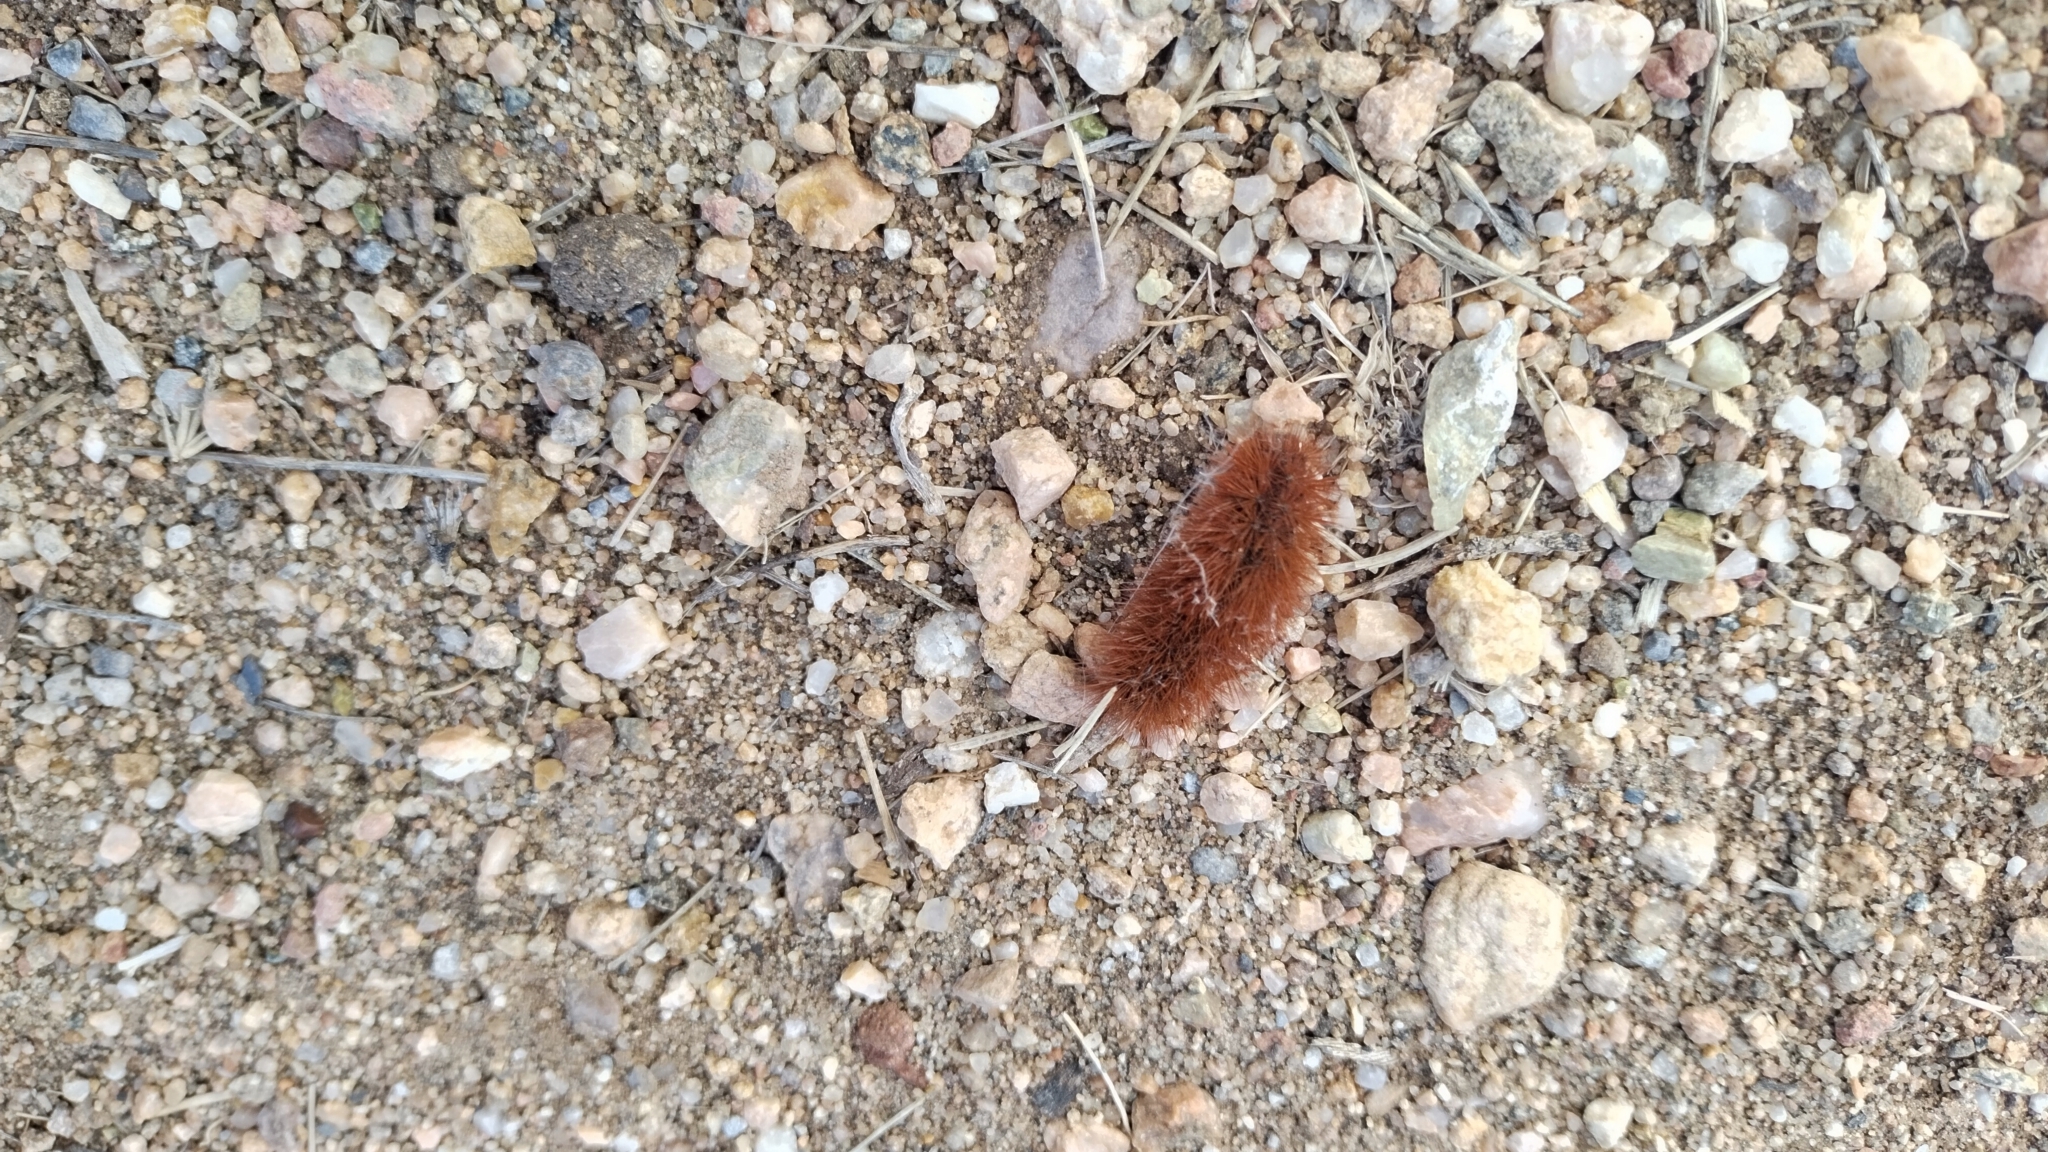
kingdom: Animalia
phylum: Arthropoda
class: Insecta
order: Lepidoptera
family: Erebidae
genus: Pyrrharctia
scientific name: Pyrrharctia isabella
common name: Isabella tiger moth
